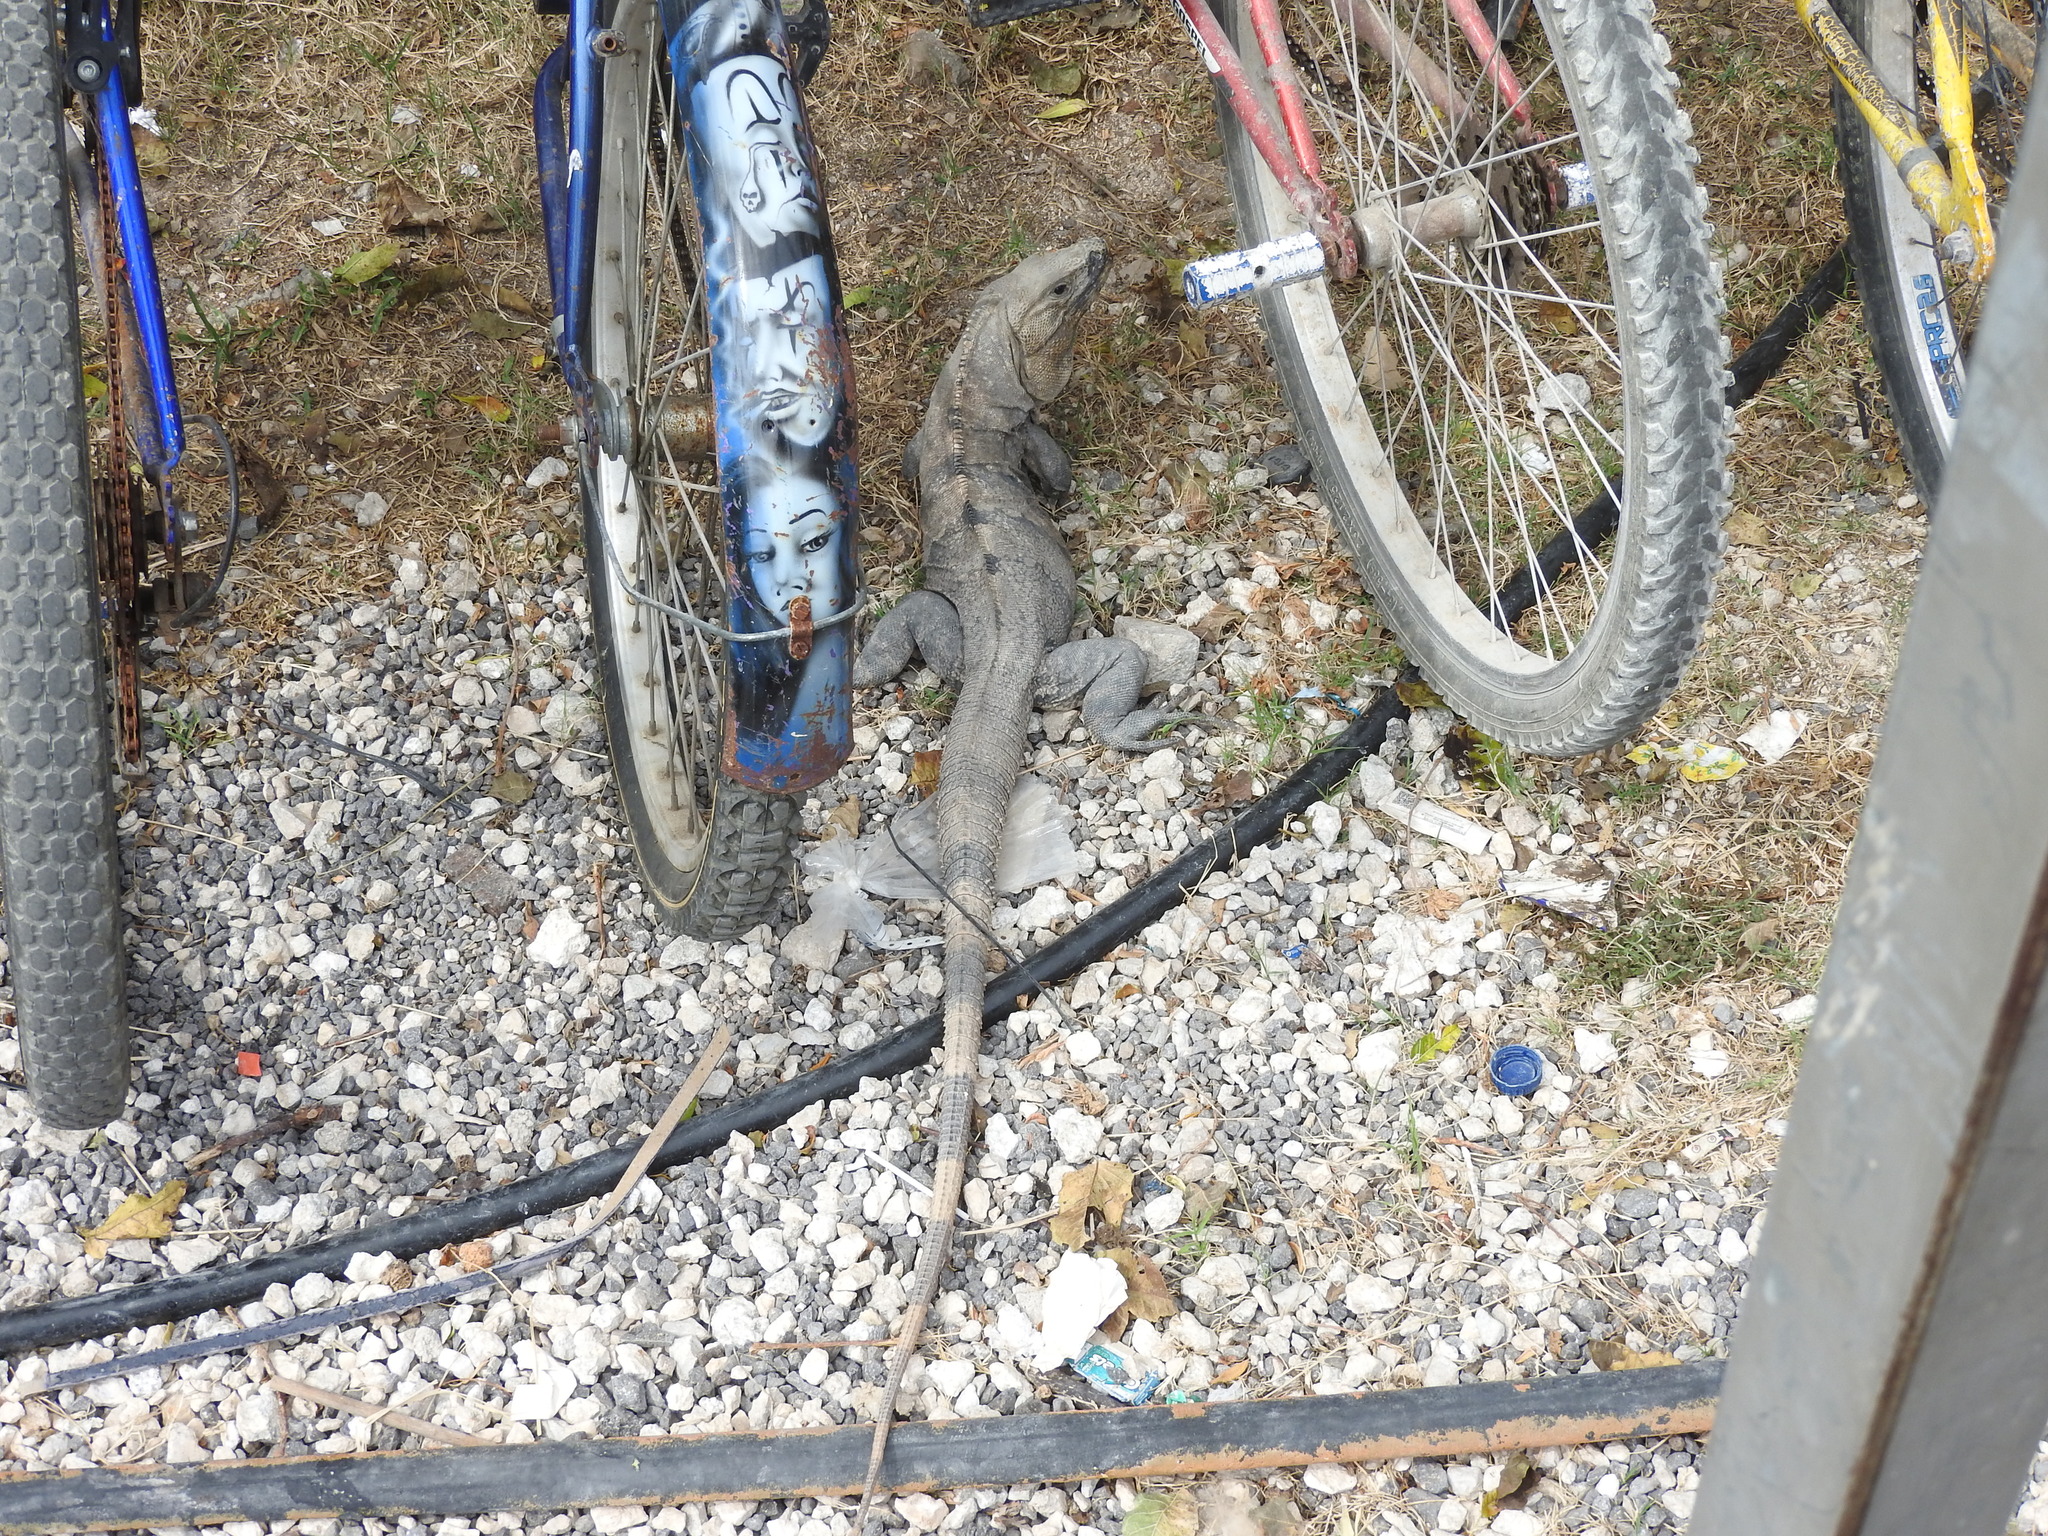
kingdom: Animalia
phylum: Chordata
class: Squamata
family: Iguanidae
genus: Ctenosaura
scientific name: Ctenosaura similis
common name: Black spiny-tailed iguana
